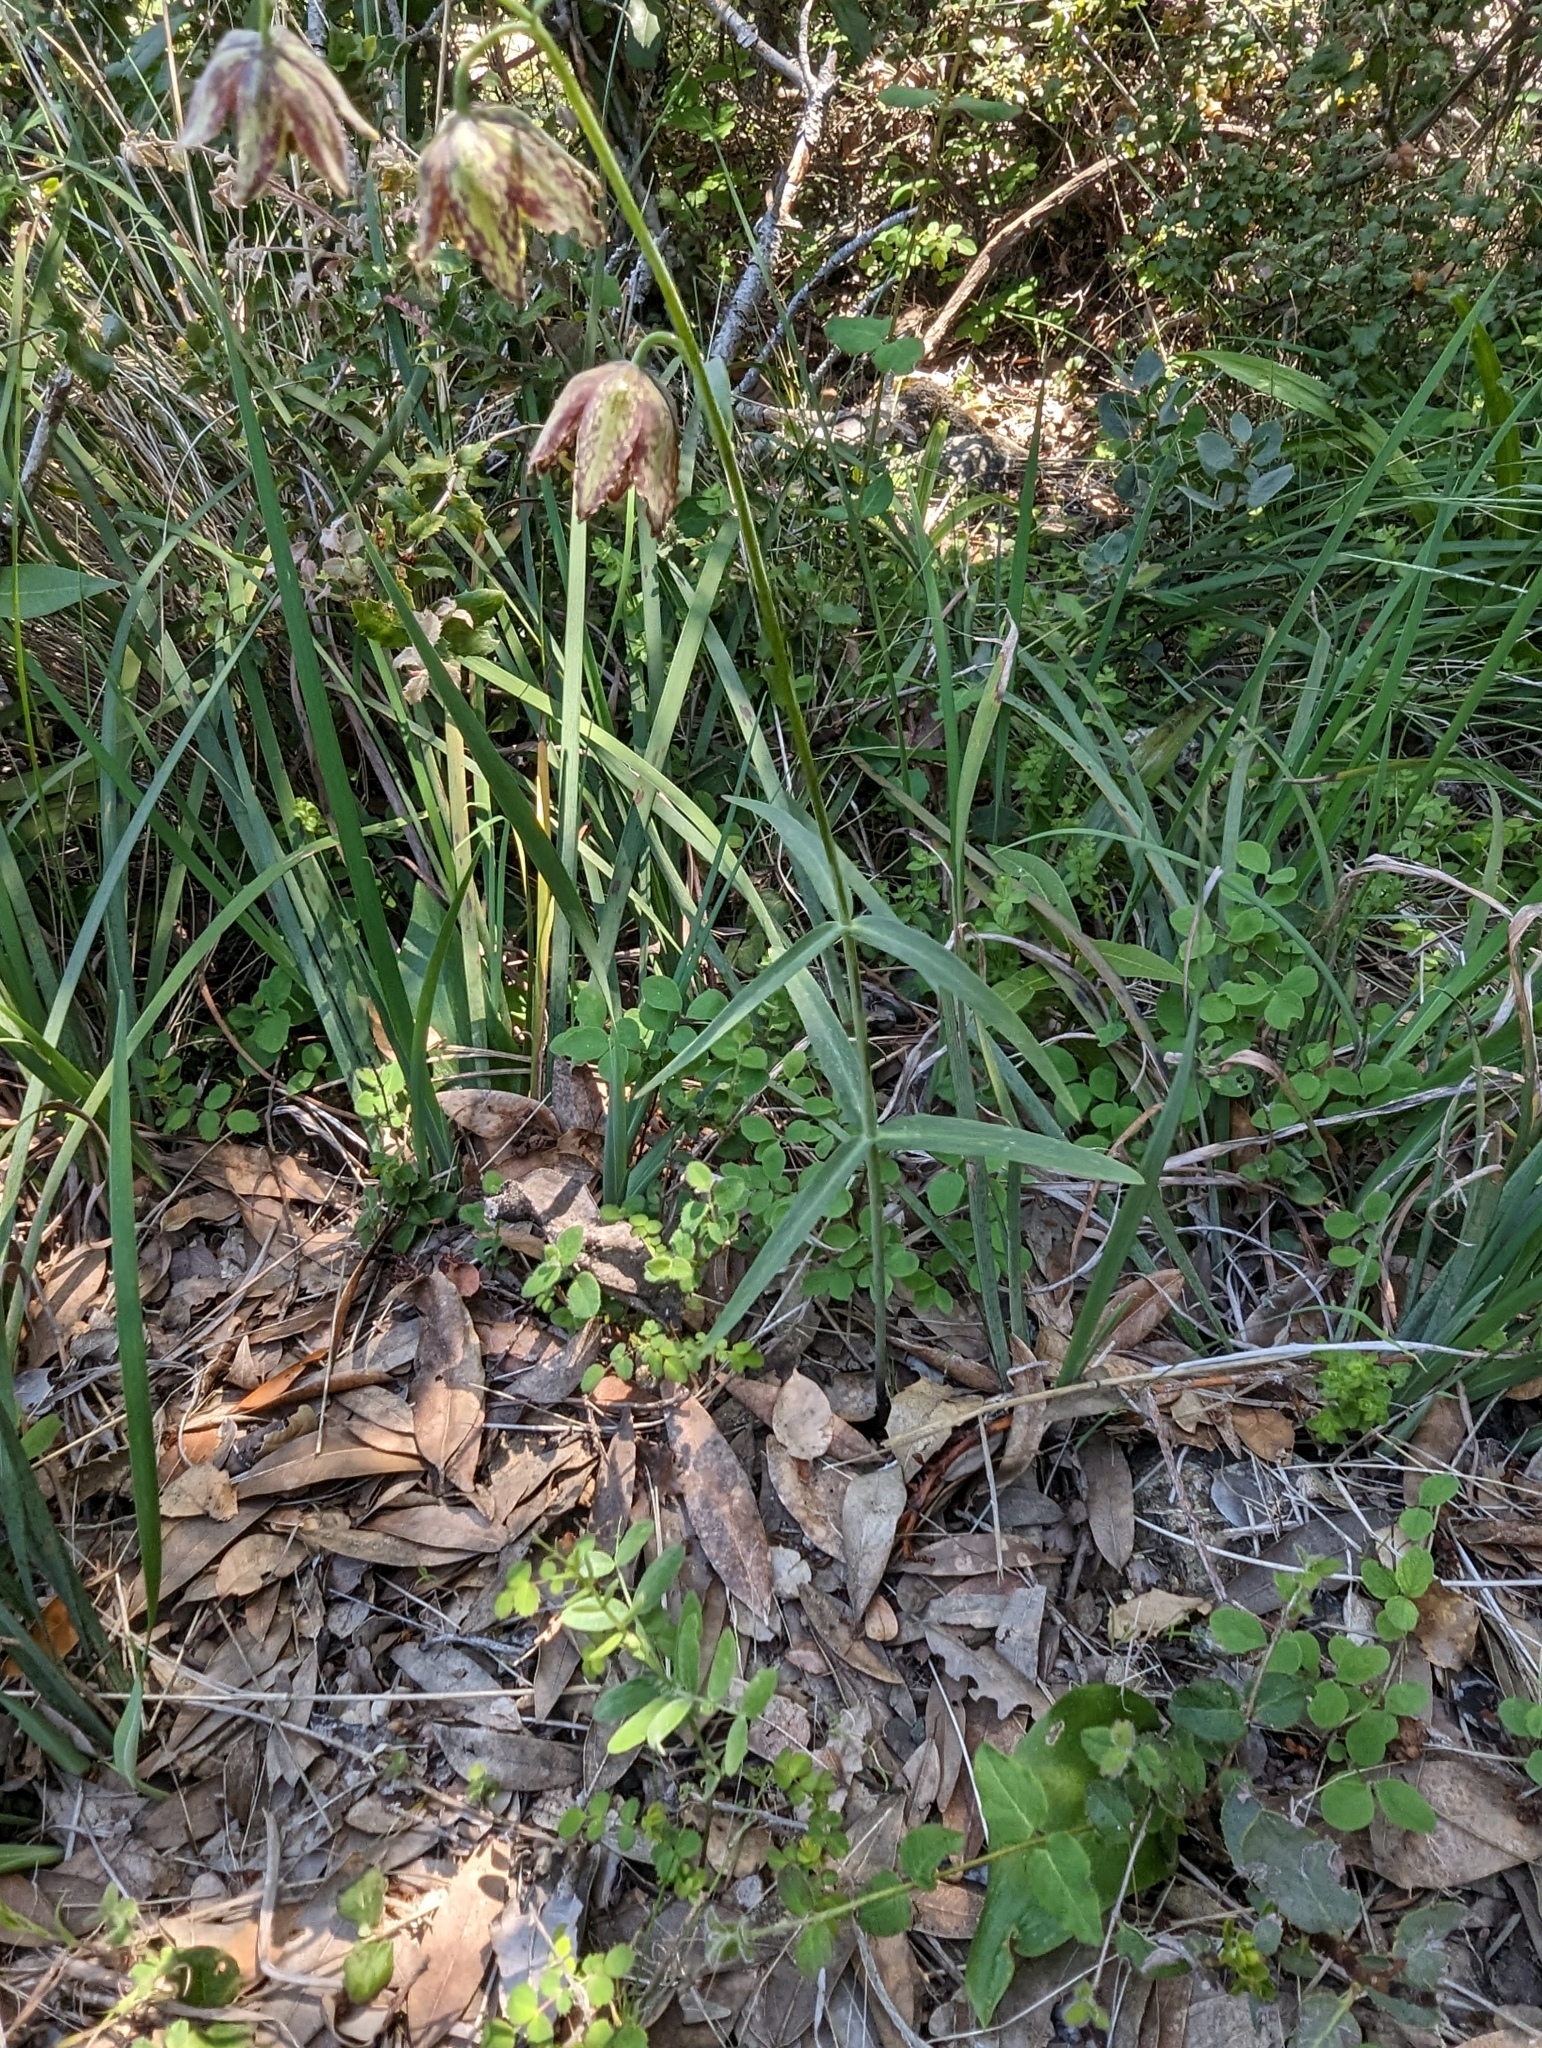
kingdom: Plantae
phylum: Tracheophyta
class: Liliopsida
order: Liliales
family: Liliaceae
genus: Fritillaria
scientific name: Fritillaria affinis
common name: Ojai fritillary
